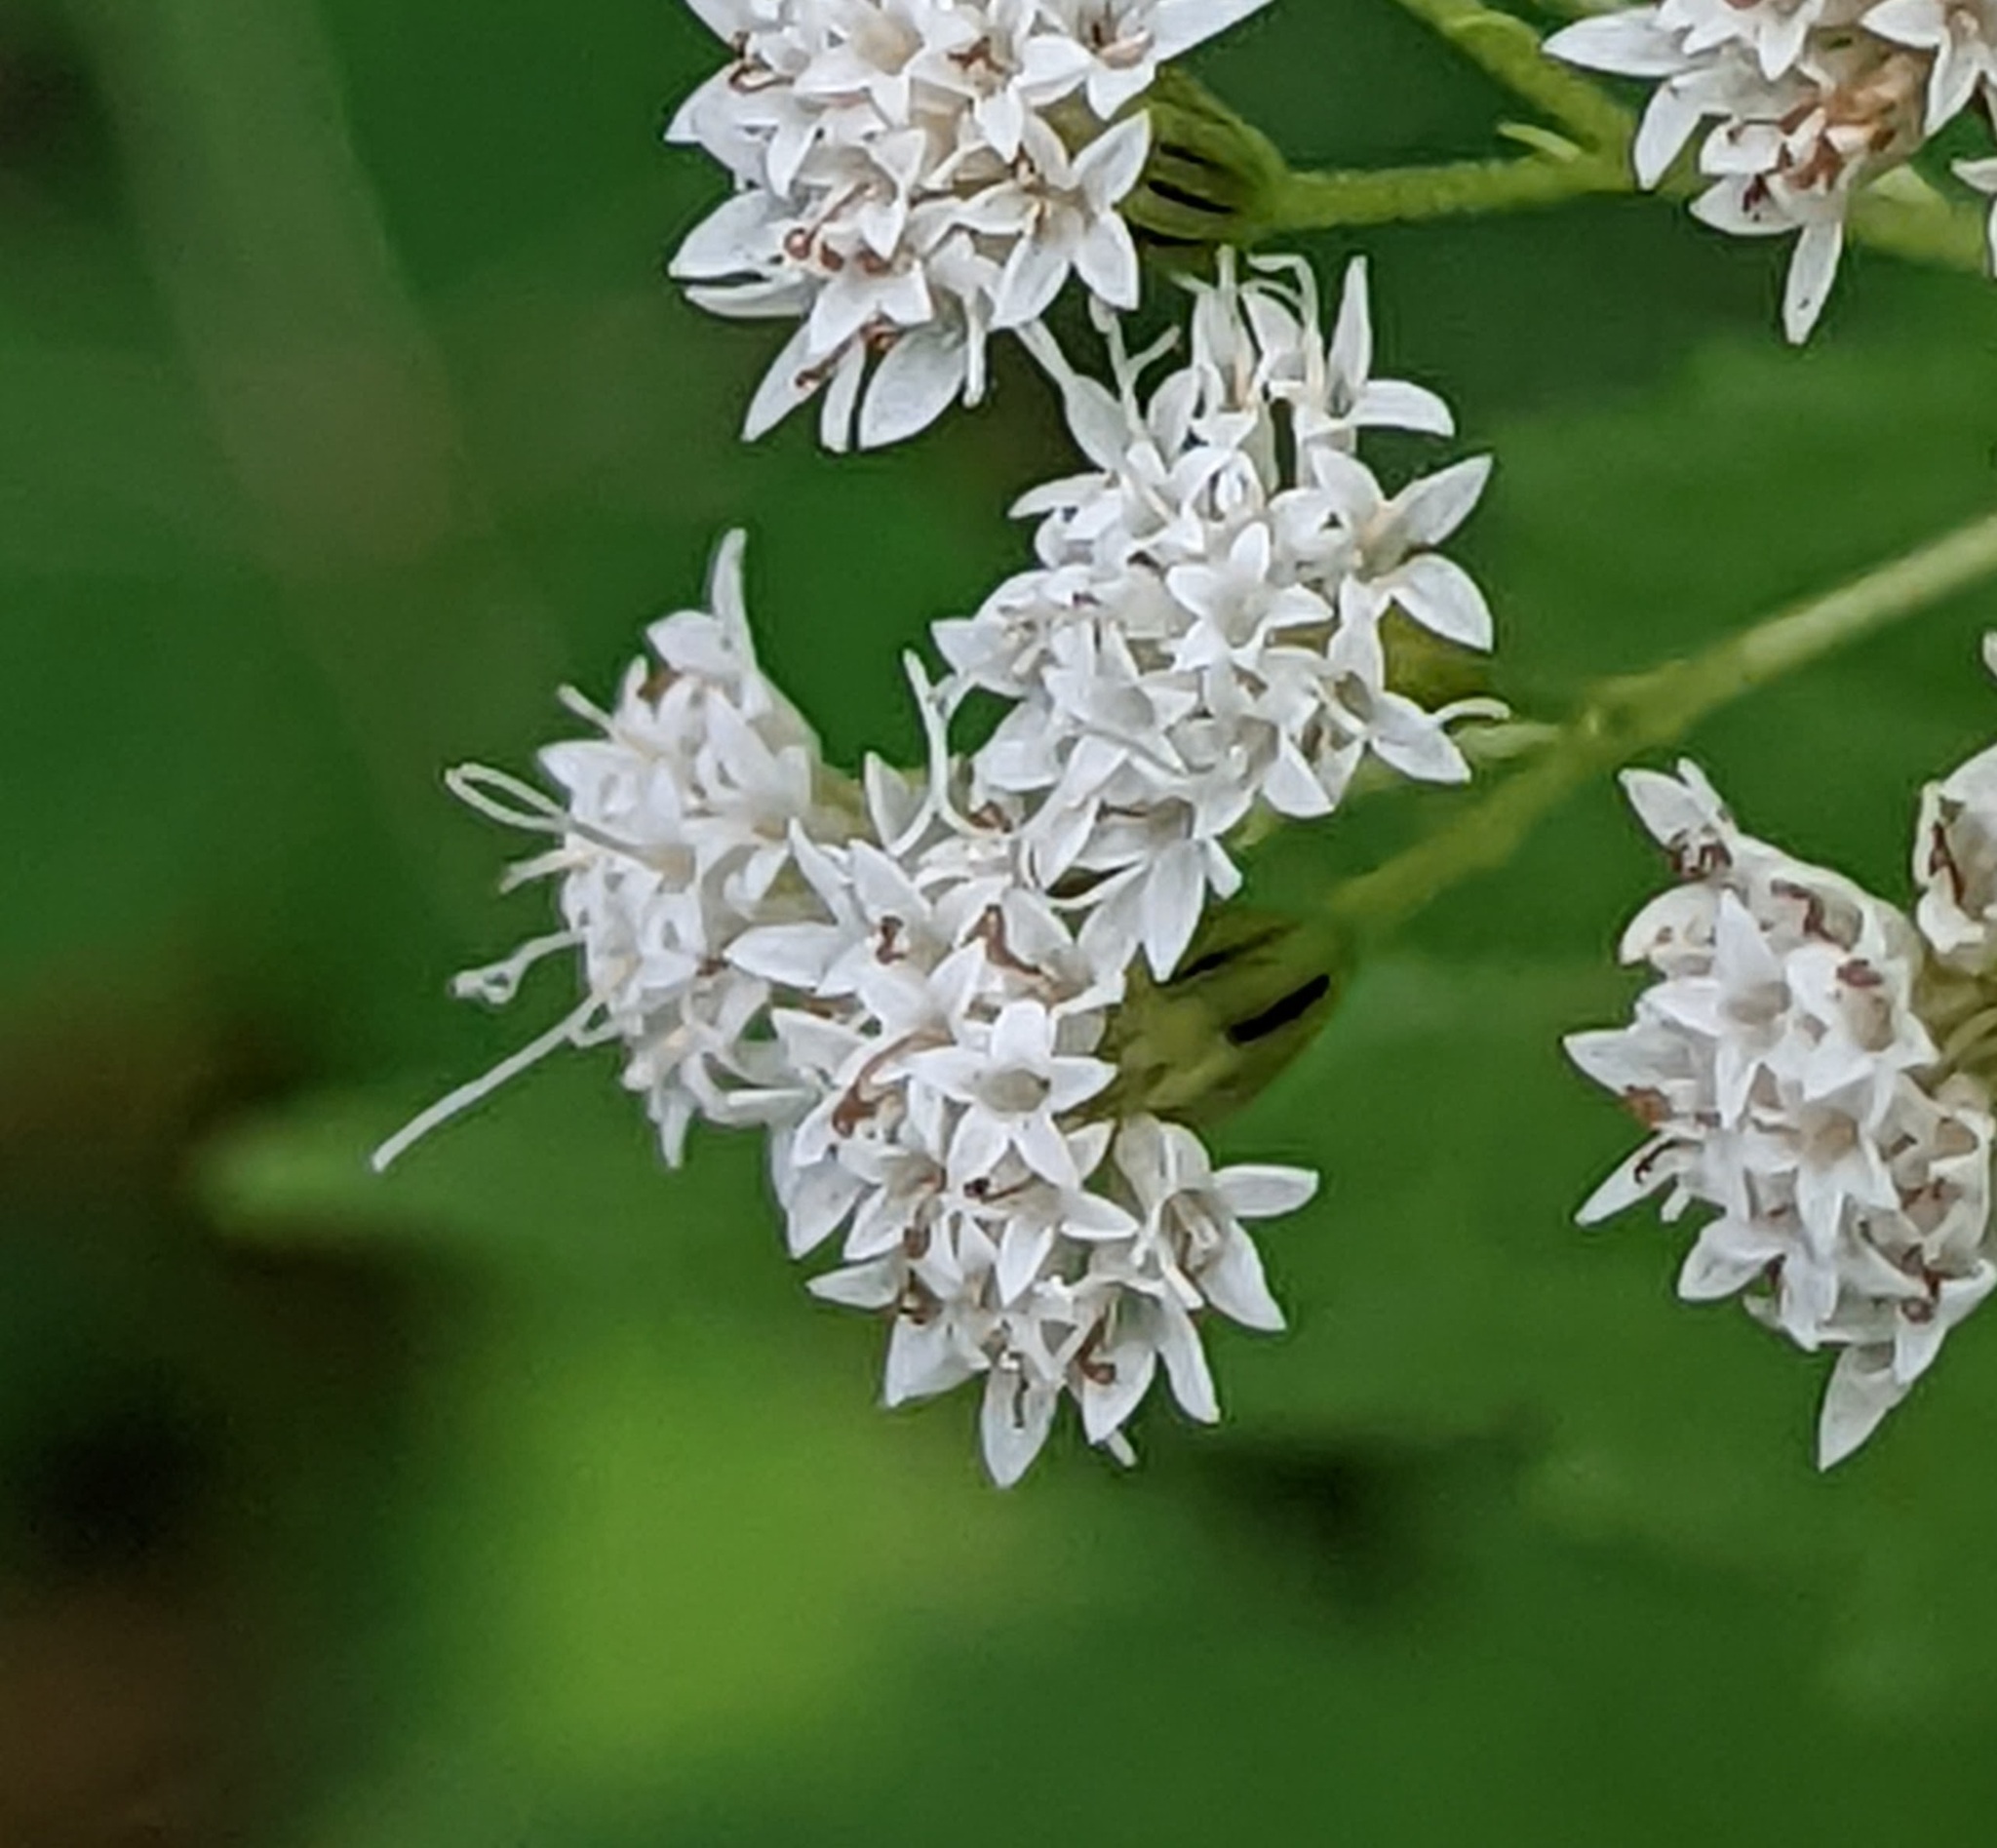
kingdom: Plantae
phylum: Tracheophyta
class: Magnoliopsida
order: Asterales
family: Asteraceae
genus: Ageratina
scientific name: Ageratina altissima
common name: White snakeroot
